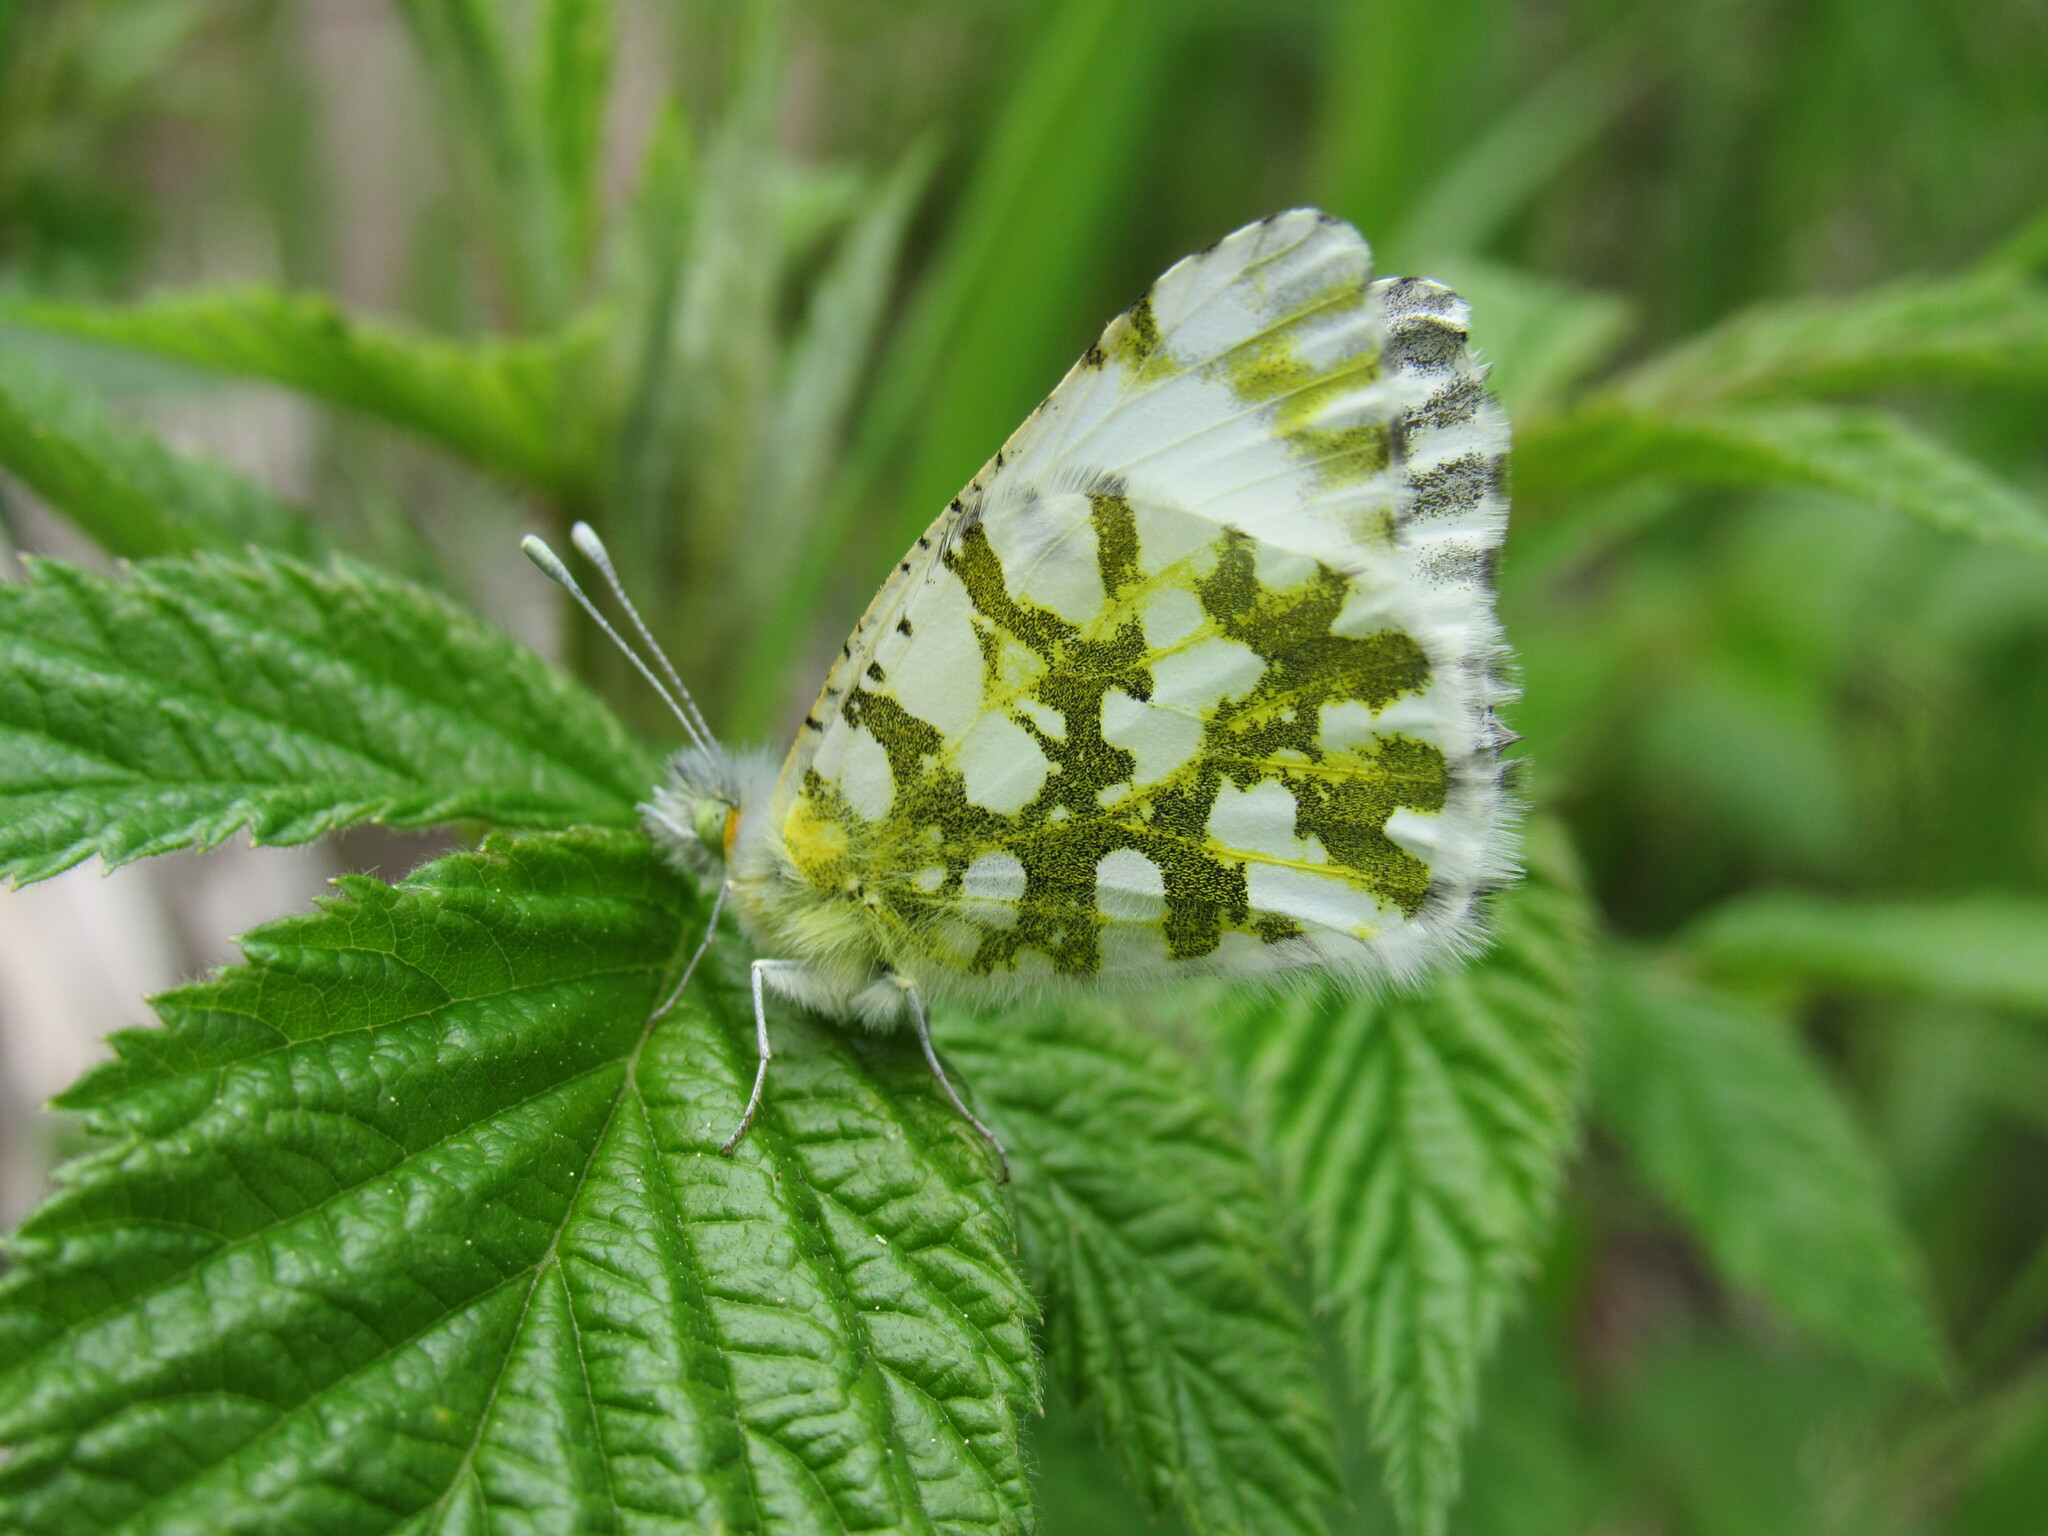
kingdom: Animalia
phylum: Arthropoda
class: Insecta
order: Lepidoptera
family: Pieridae
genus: Euchloe
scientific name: Euchloe ausonides
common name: Creamy marblewing
